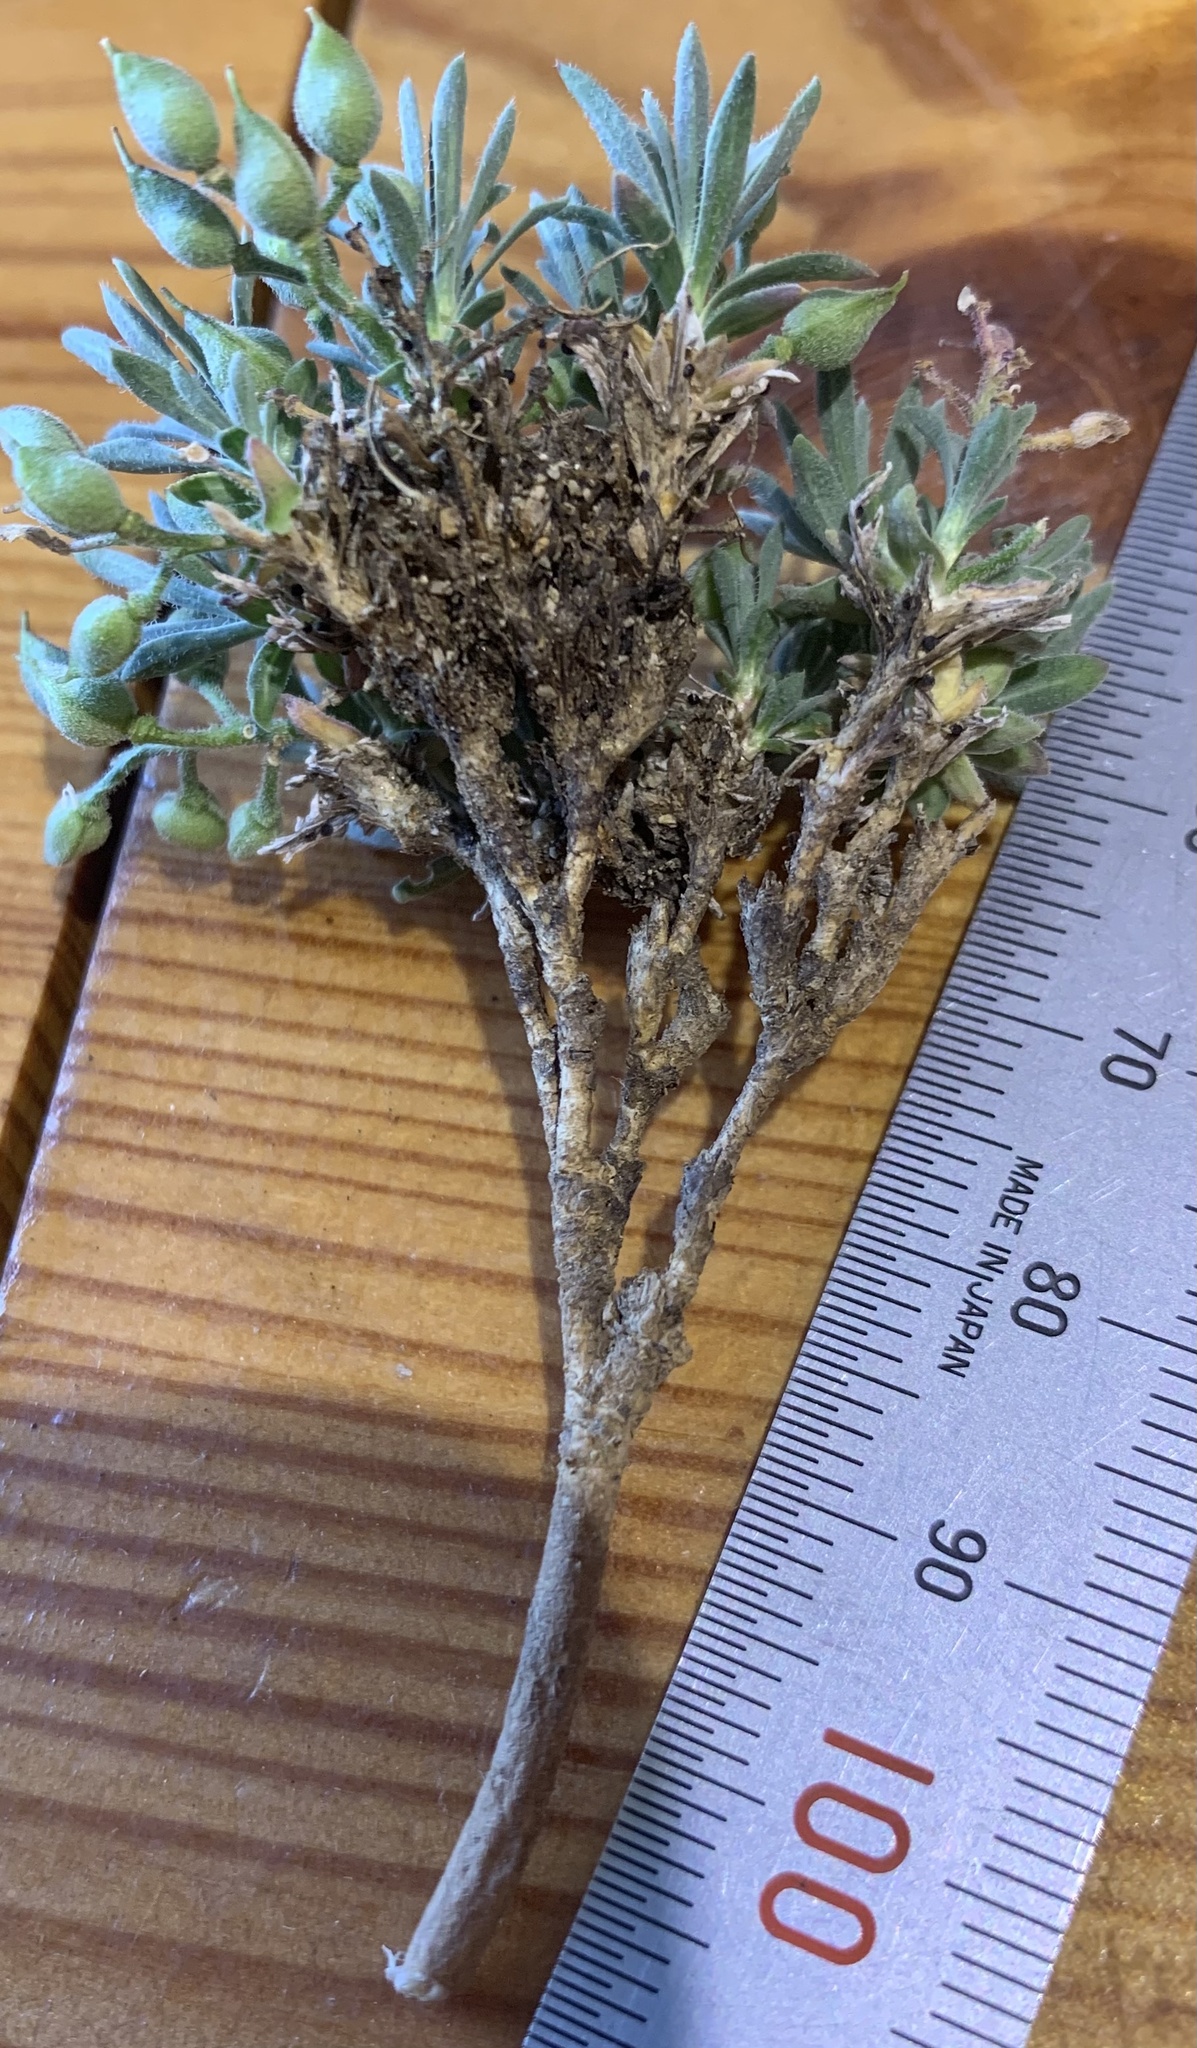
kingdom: Plantae
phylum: Tracheophyta
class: Magnoliopsida
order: Brassicales
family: Brassicaceae
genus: Cusickiella
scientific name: Cusickiella douglasii
